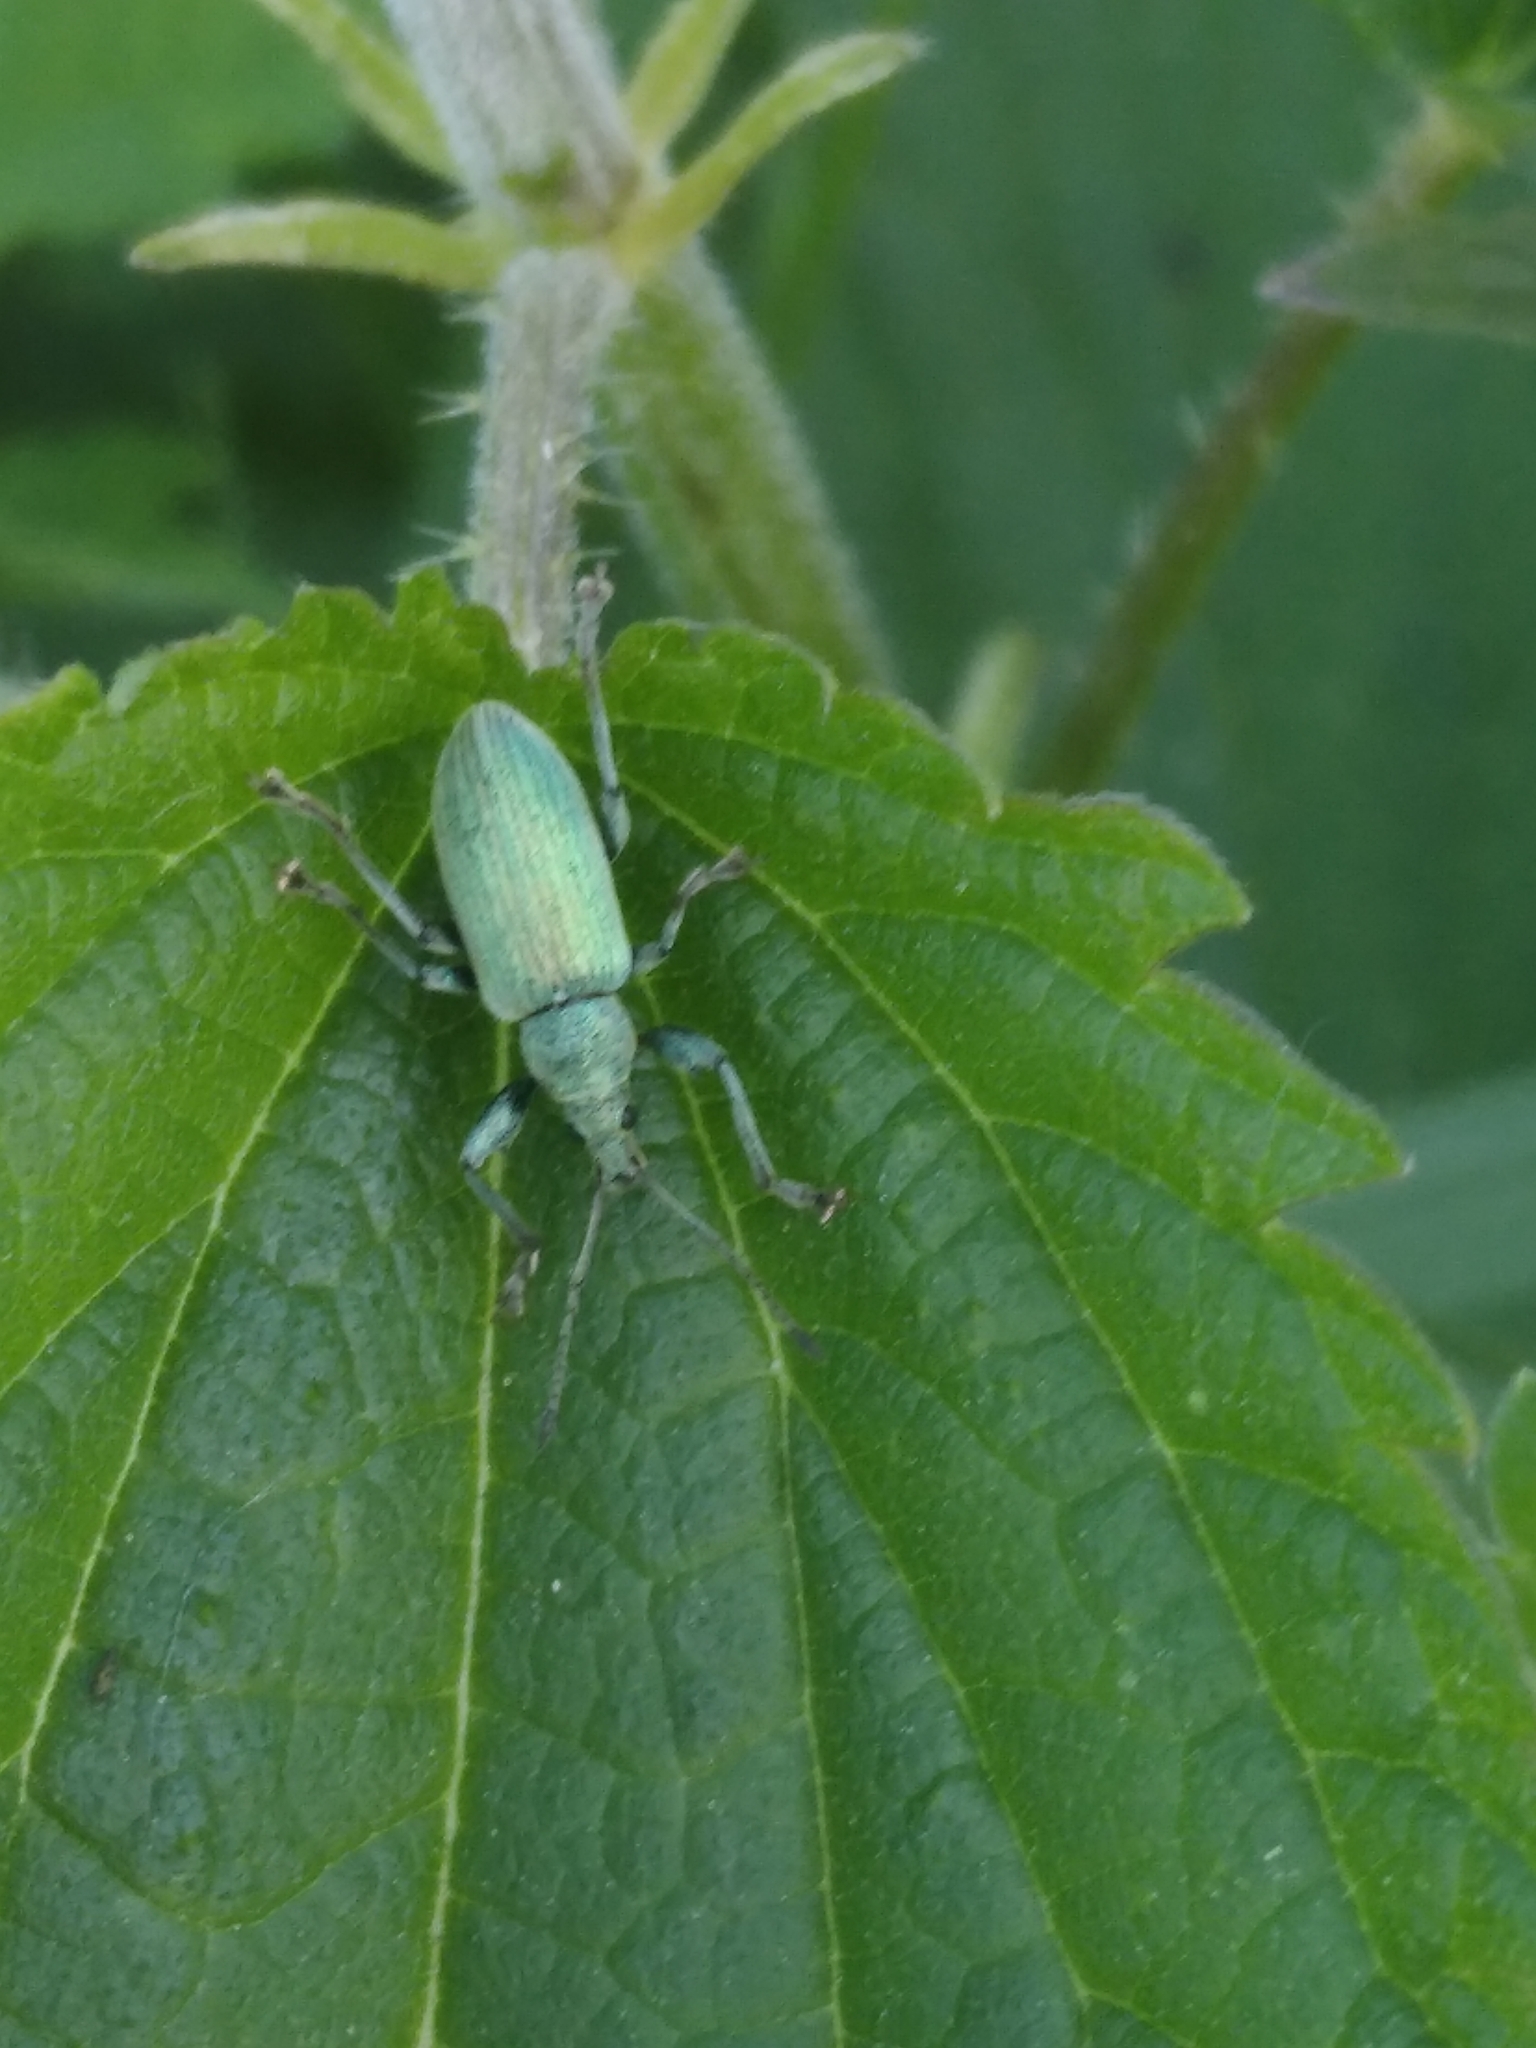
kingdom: Animalia
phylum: Arthropoda
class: Insecta
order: Coleoptera
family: Curculionidae
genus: Phyllobius
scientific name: Phyllobius pomaceus
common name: Green nettle weevil
